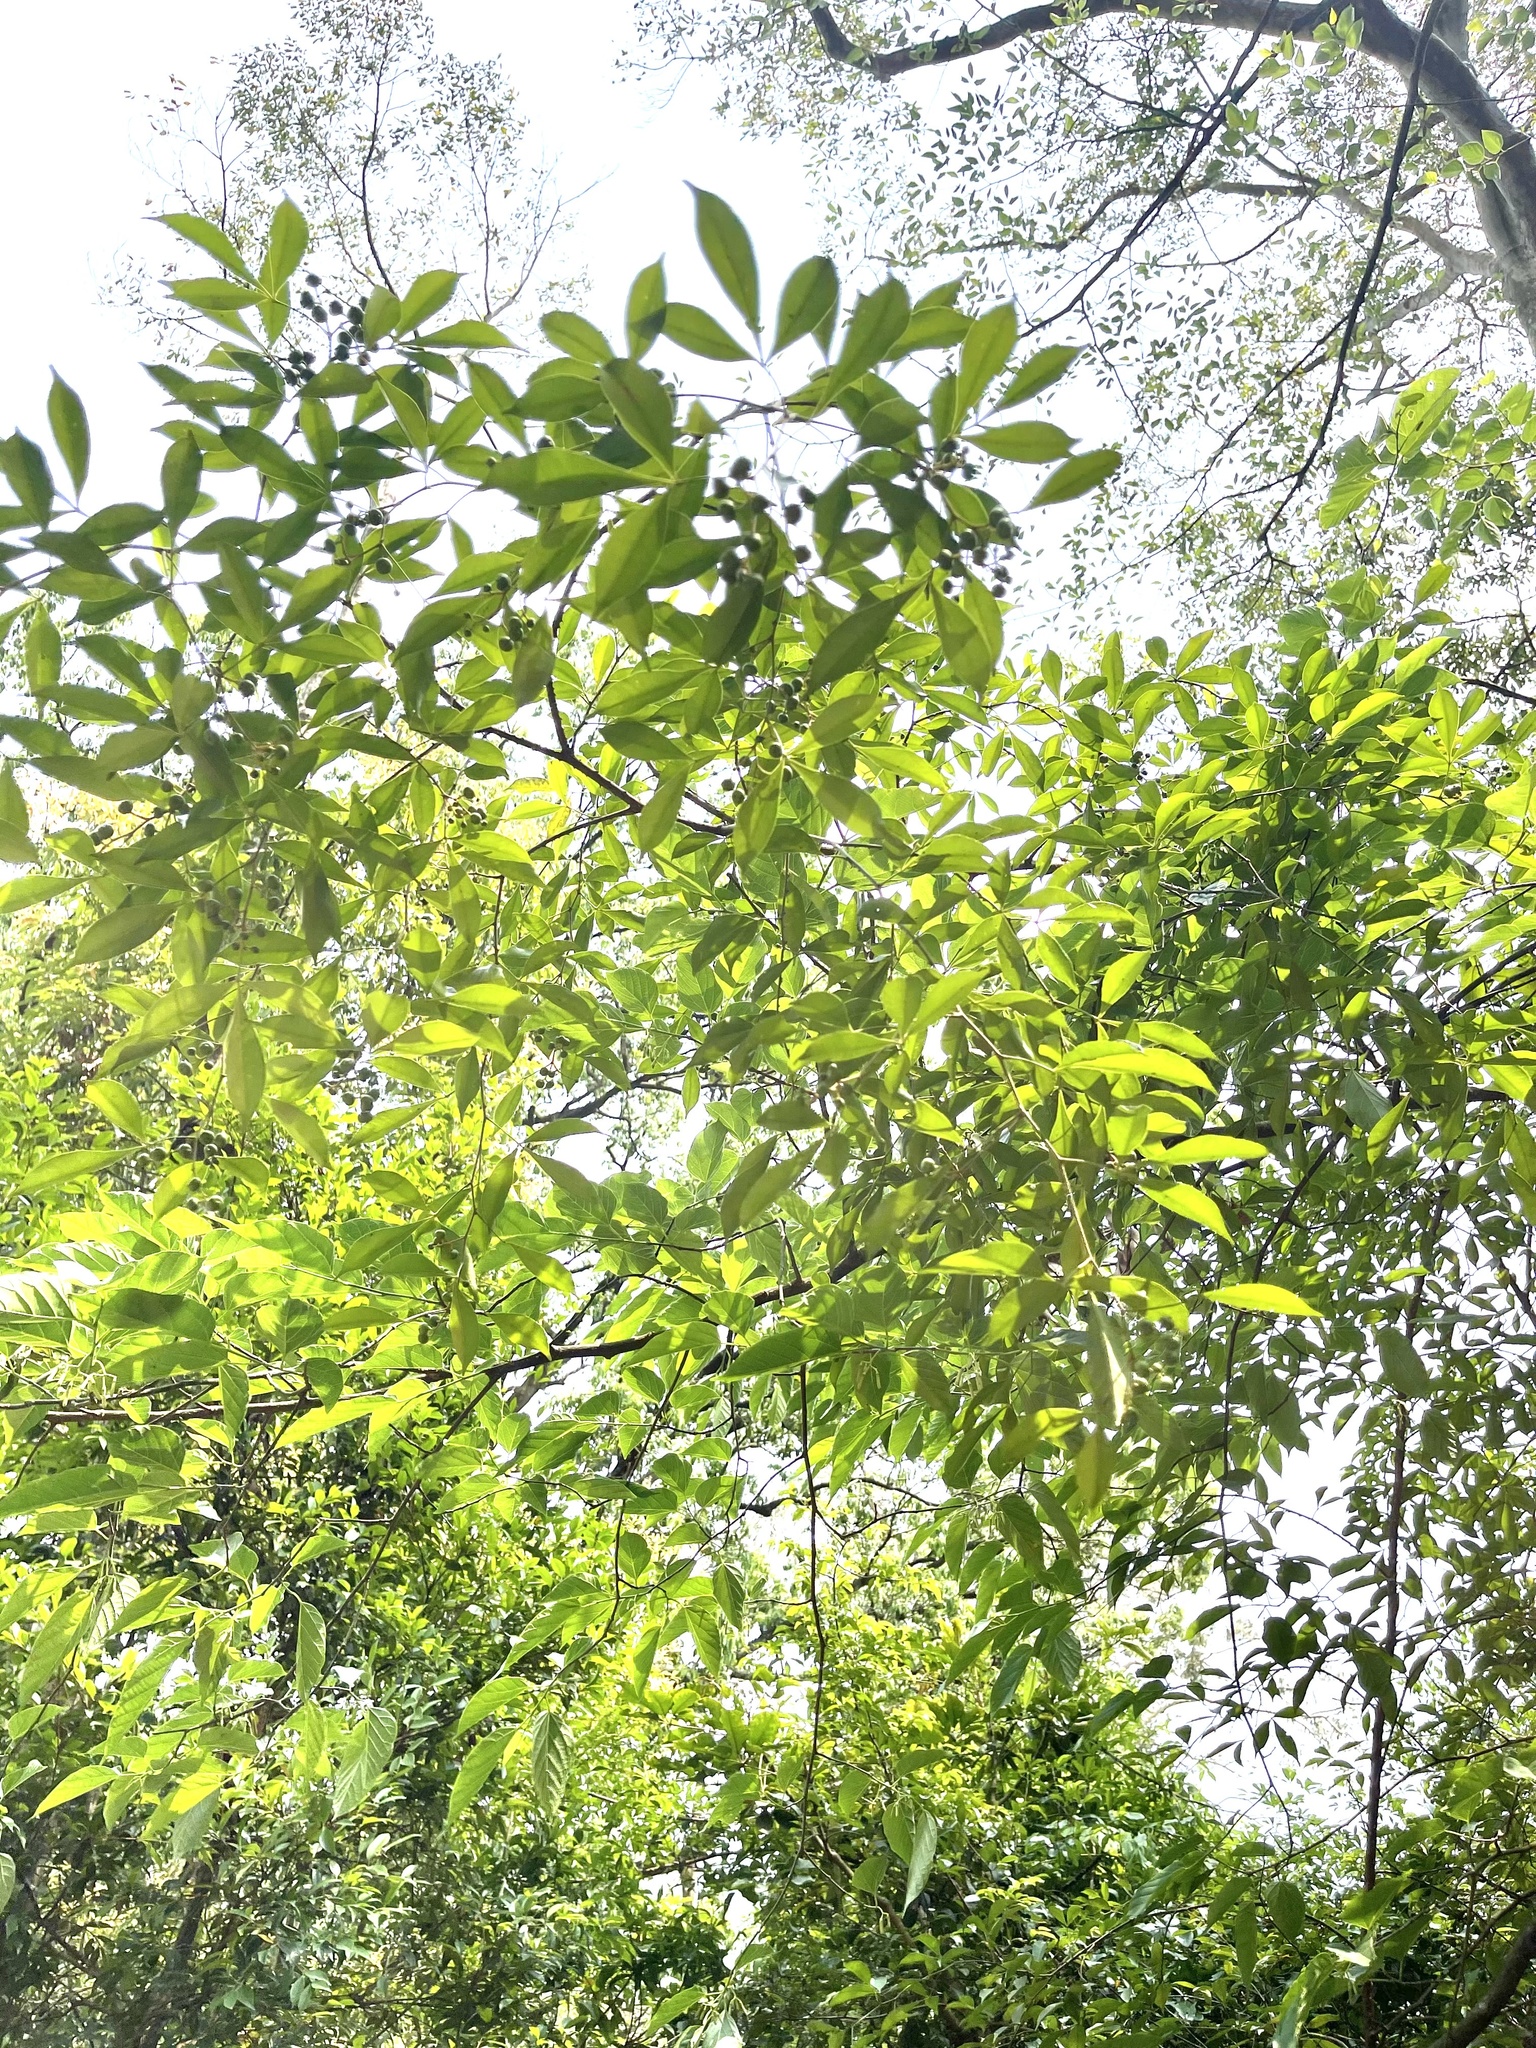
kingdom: Plantae
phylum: Tracheophyta
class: Magnoliopsida
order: Sapindales
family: Rutaceae
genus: Zanthoxylum
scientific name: Zanthoxylum asiaticum
